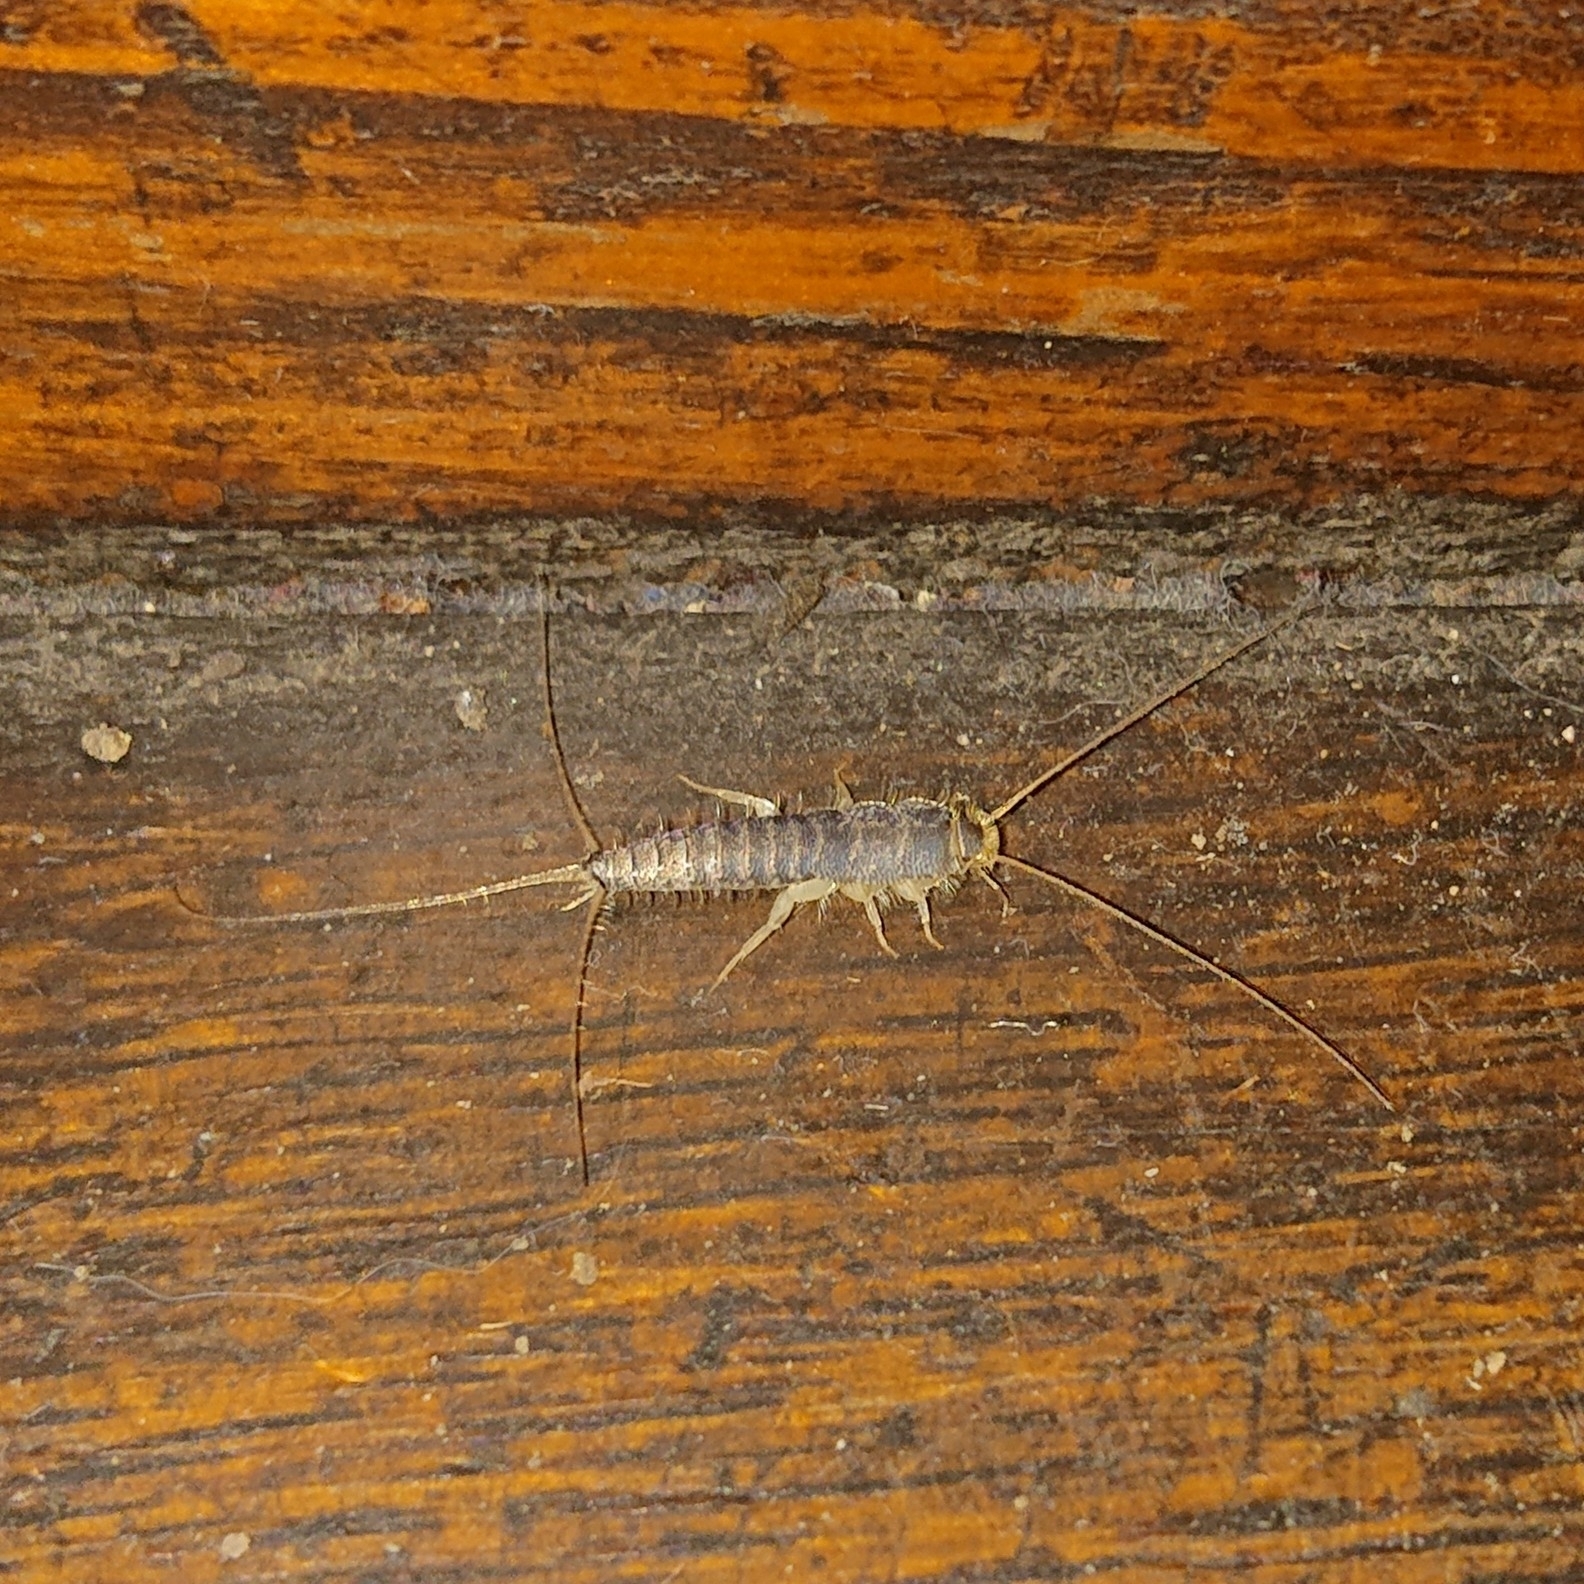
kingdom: Animalia
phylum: Arthropoda
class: Insecta
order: Zygentoma
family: Lepismatidae
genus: Ctenolepisma
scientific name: Ctenolepisma longicaudatum
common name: Silverfish
